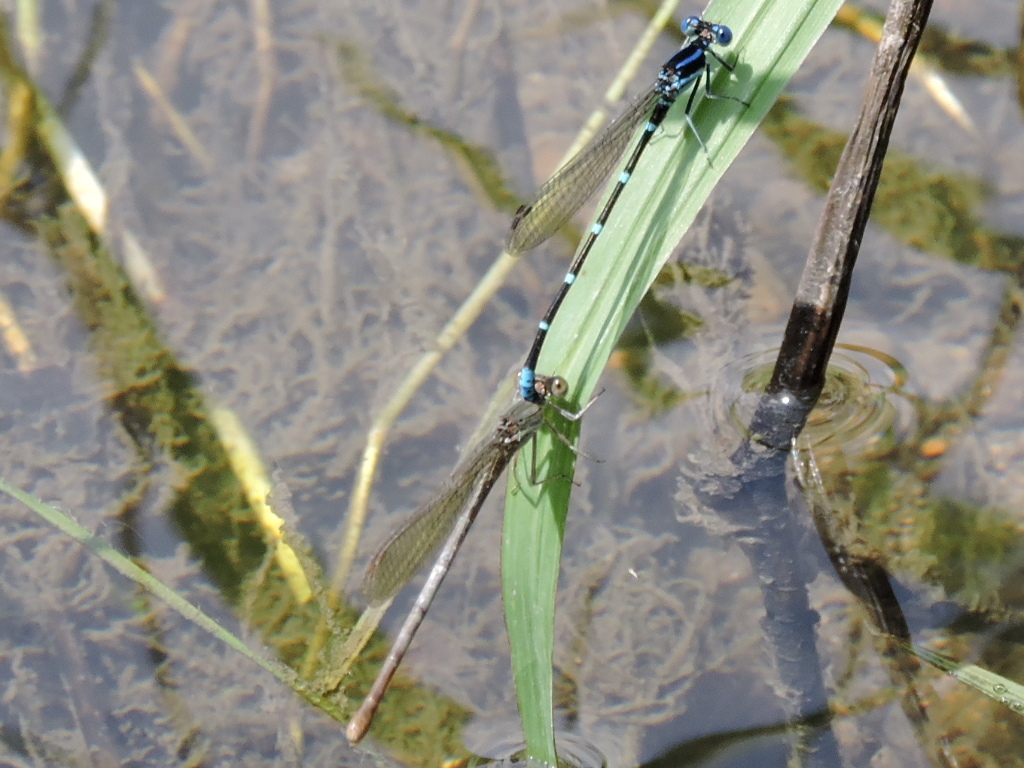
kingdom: Animalia
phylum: Arthropoda
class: Insecta
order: Odonata
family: Coenagrionidae
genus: Argia
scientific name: Argia sedula
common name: Blue-ringed dancer
